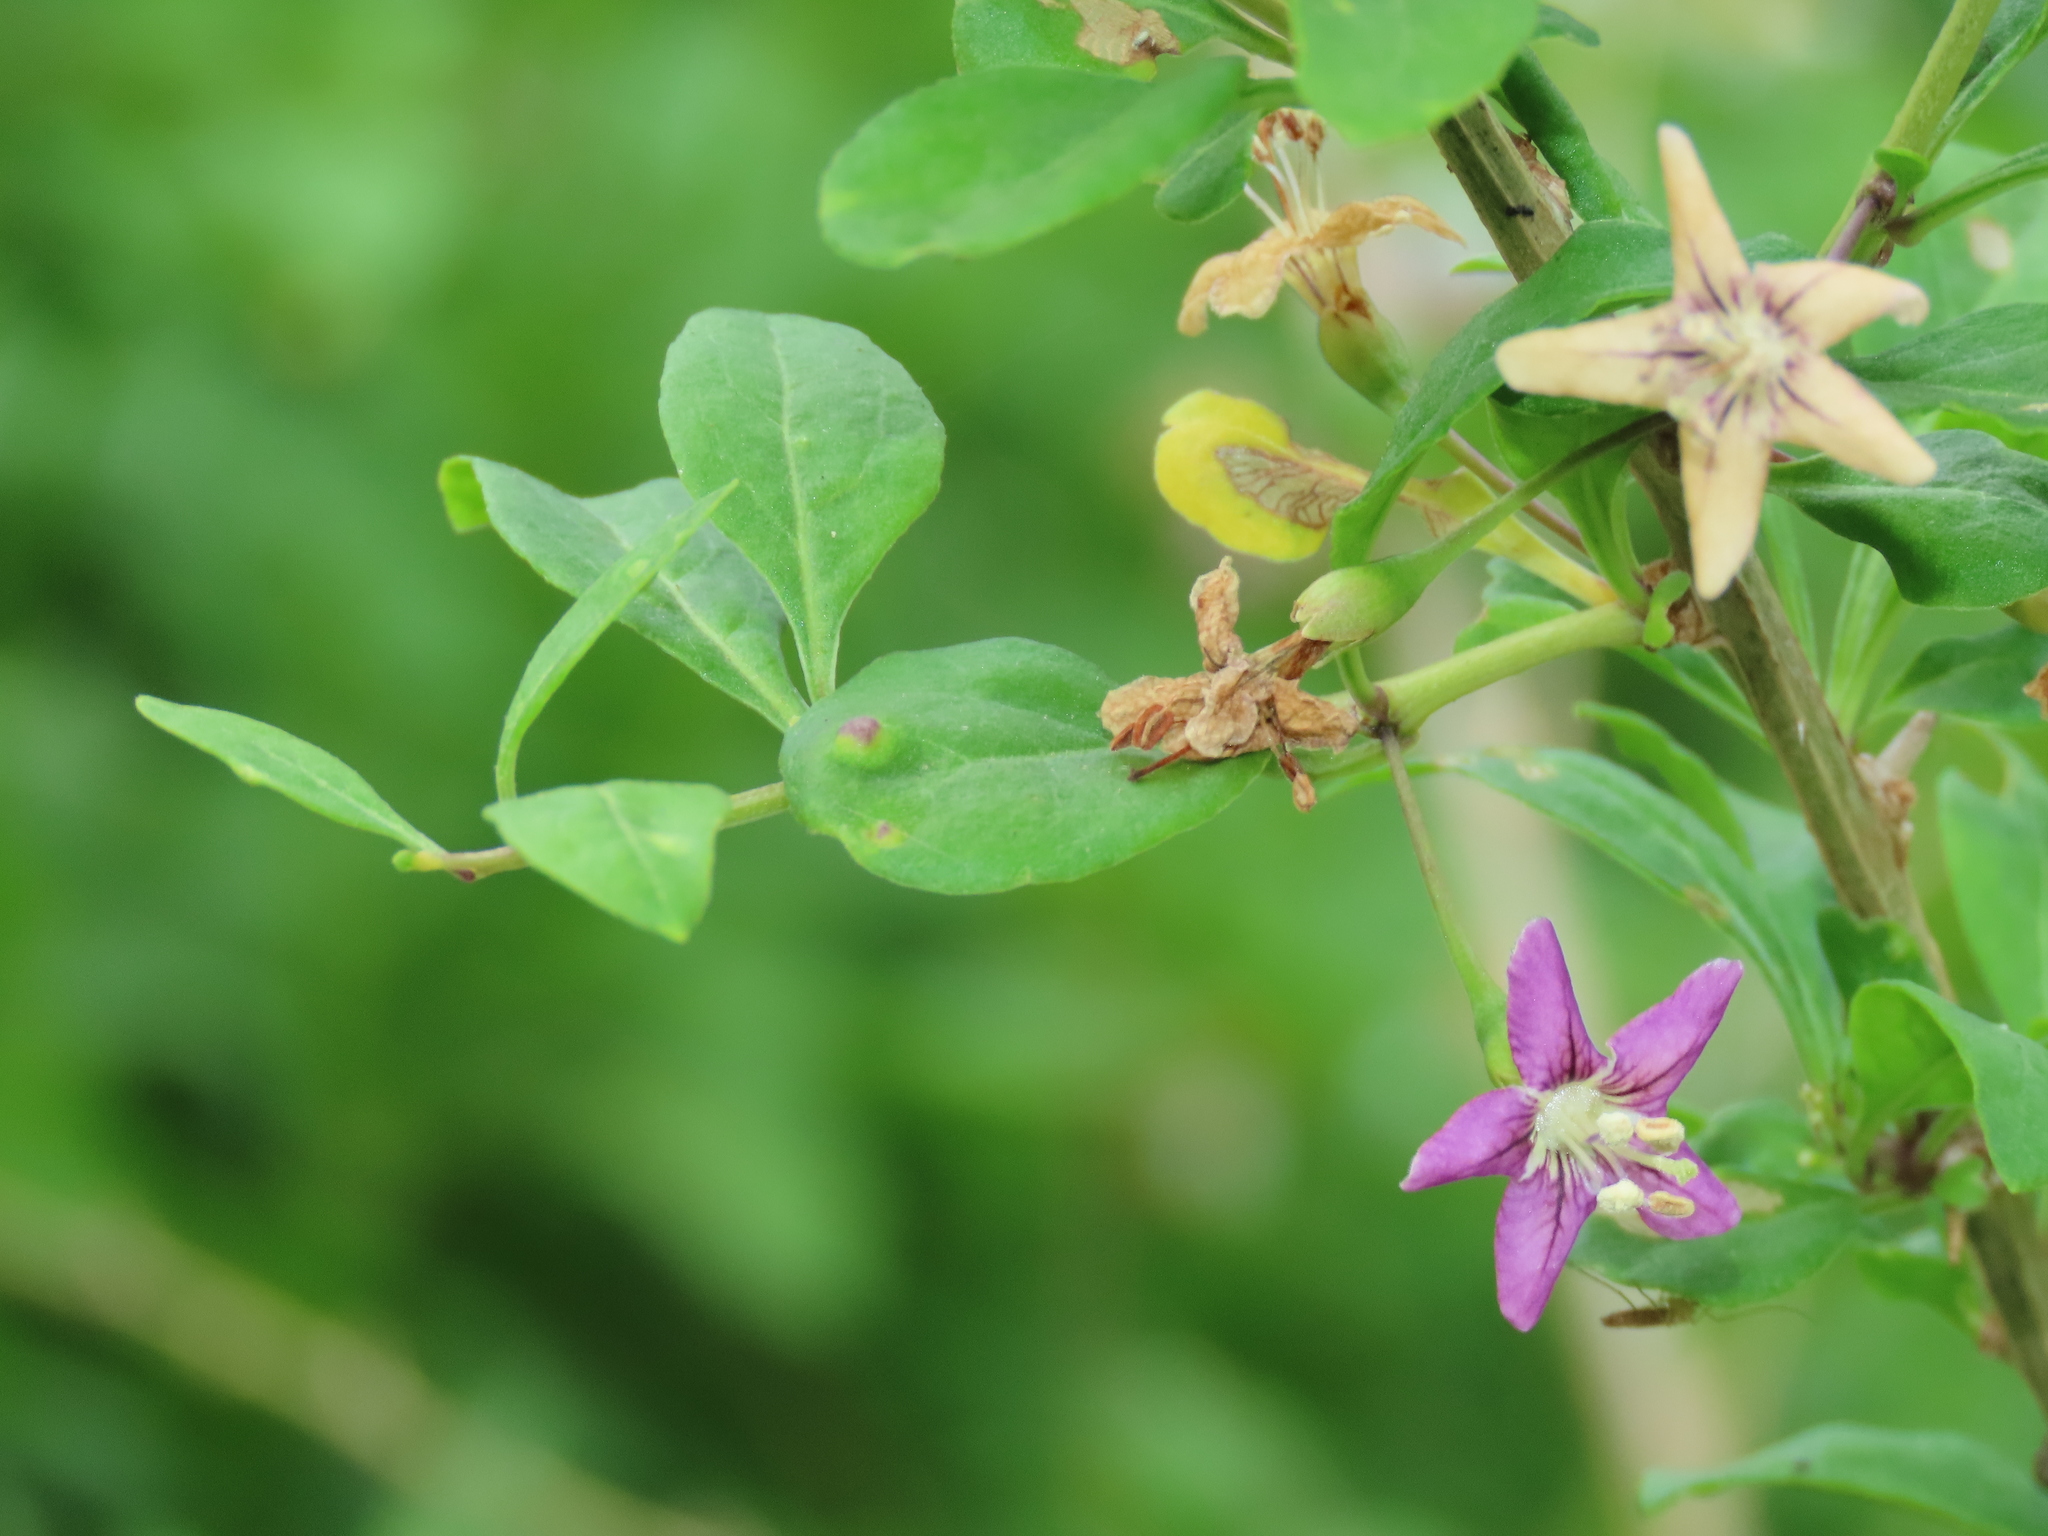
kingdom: Plantae
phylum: Tracheophyta
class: Magnoliopsida
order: Solanales
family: Solanaceae
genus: Lycium
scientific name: Lycium chinense
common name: Chinese teaplant
